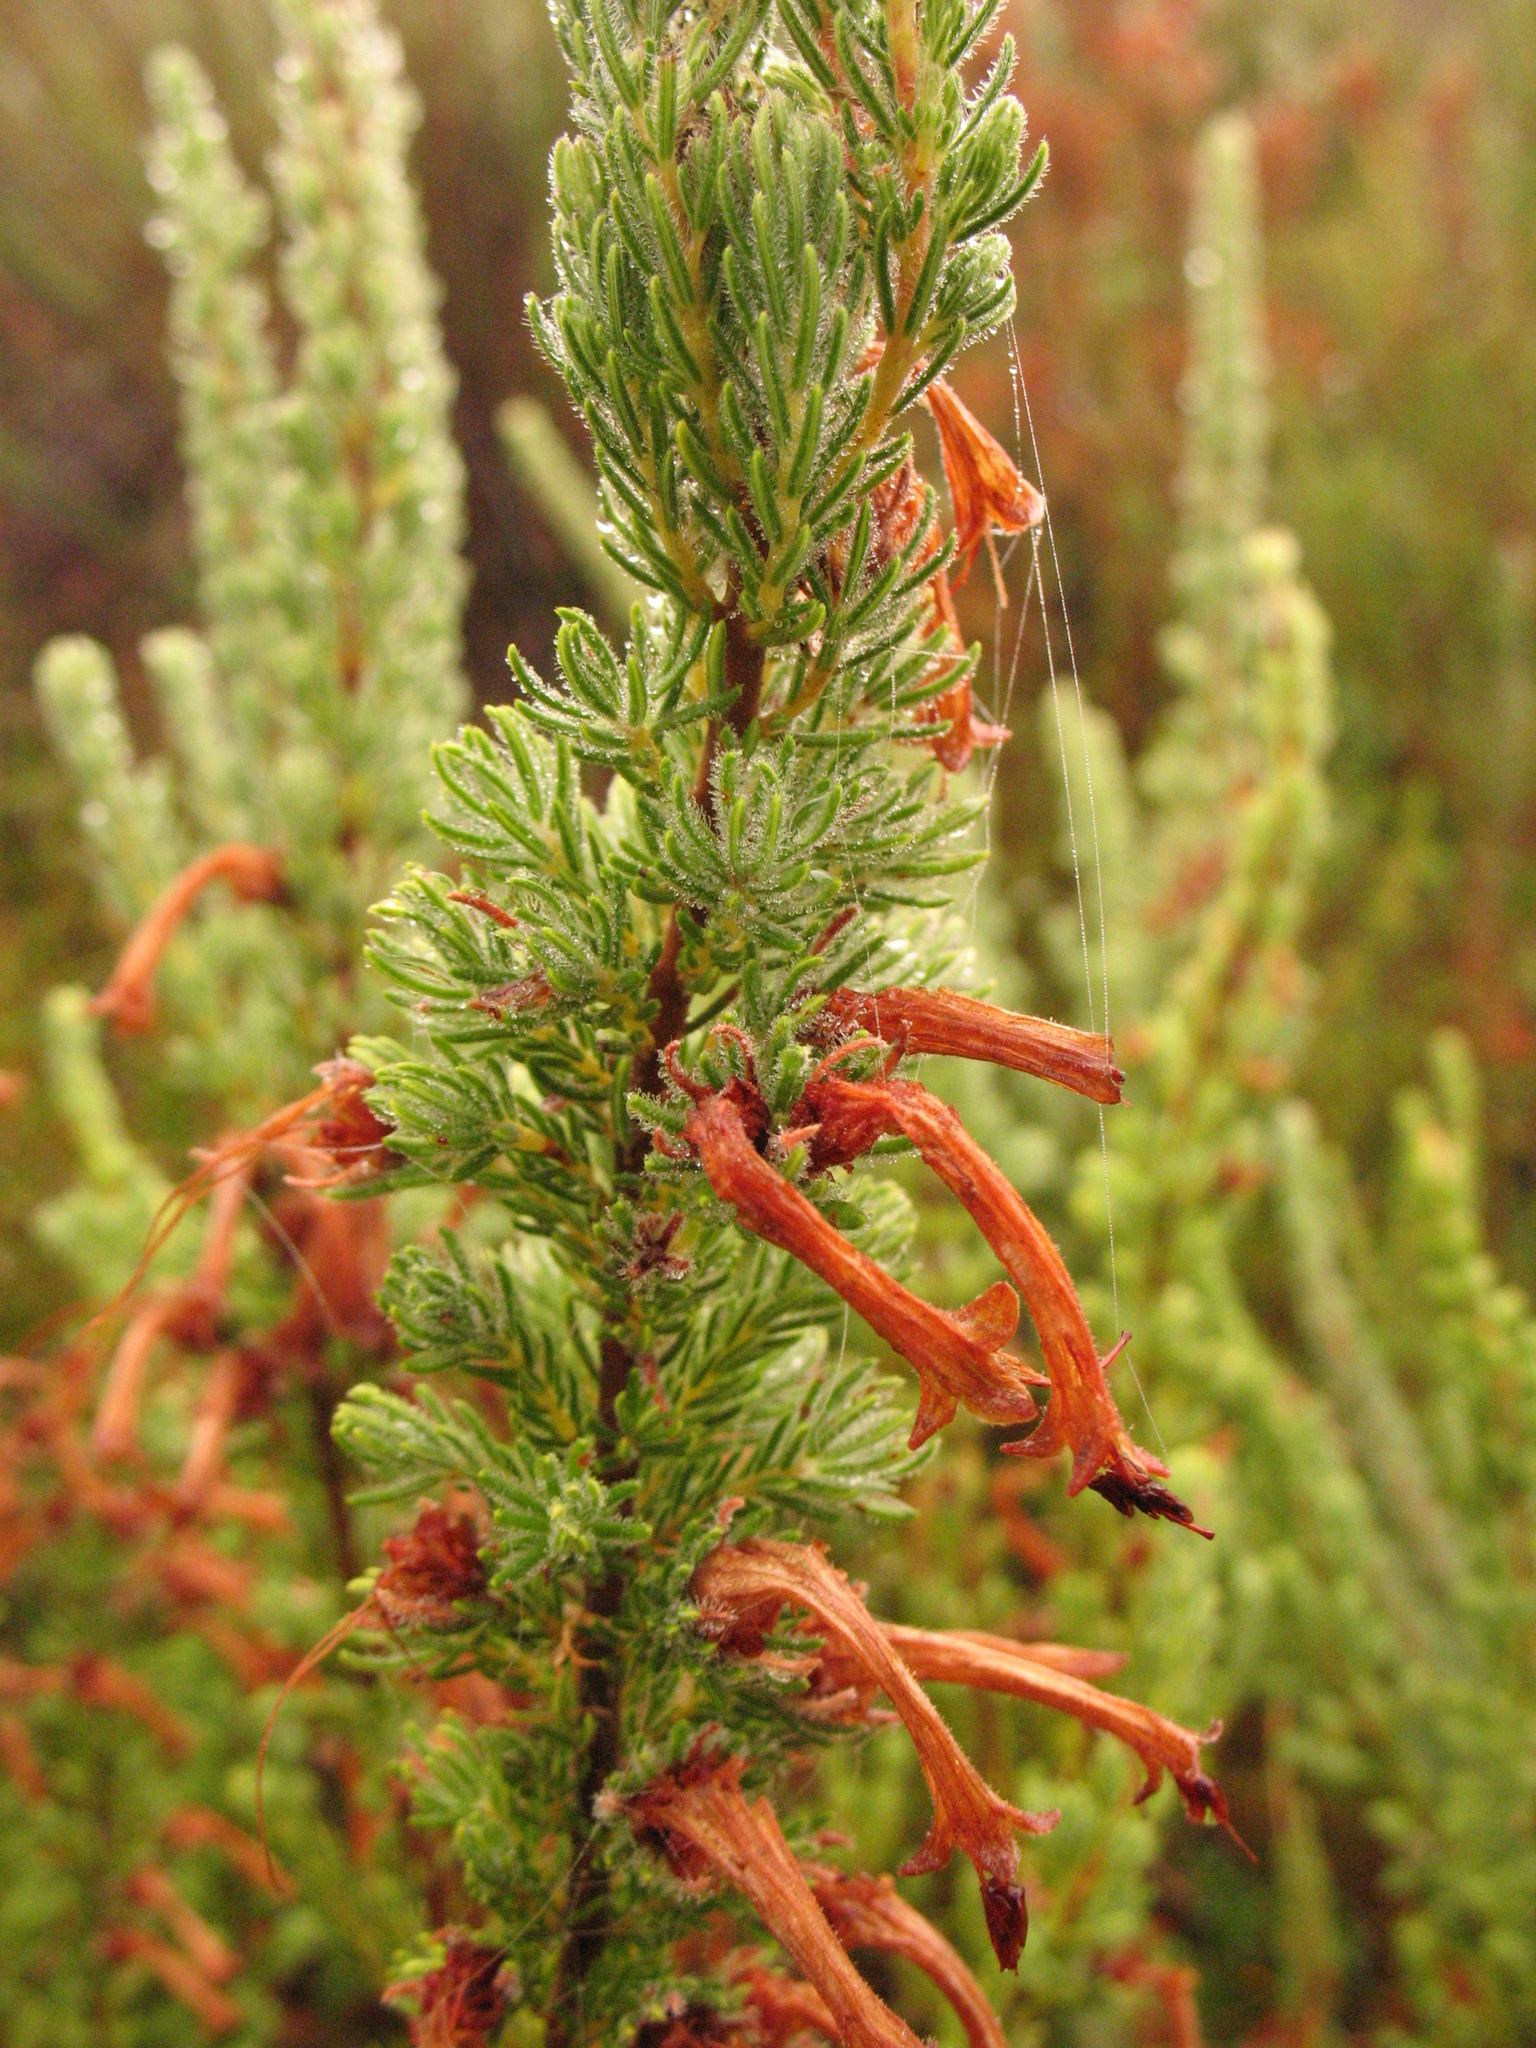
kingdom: Plantae
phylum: Tracheophyta
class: Magnoliopsida
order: Ericales
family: Ericaceae
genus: Erica
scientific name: Erica curviflora
